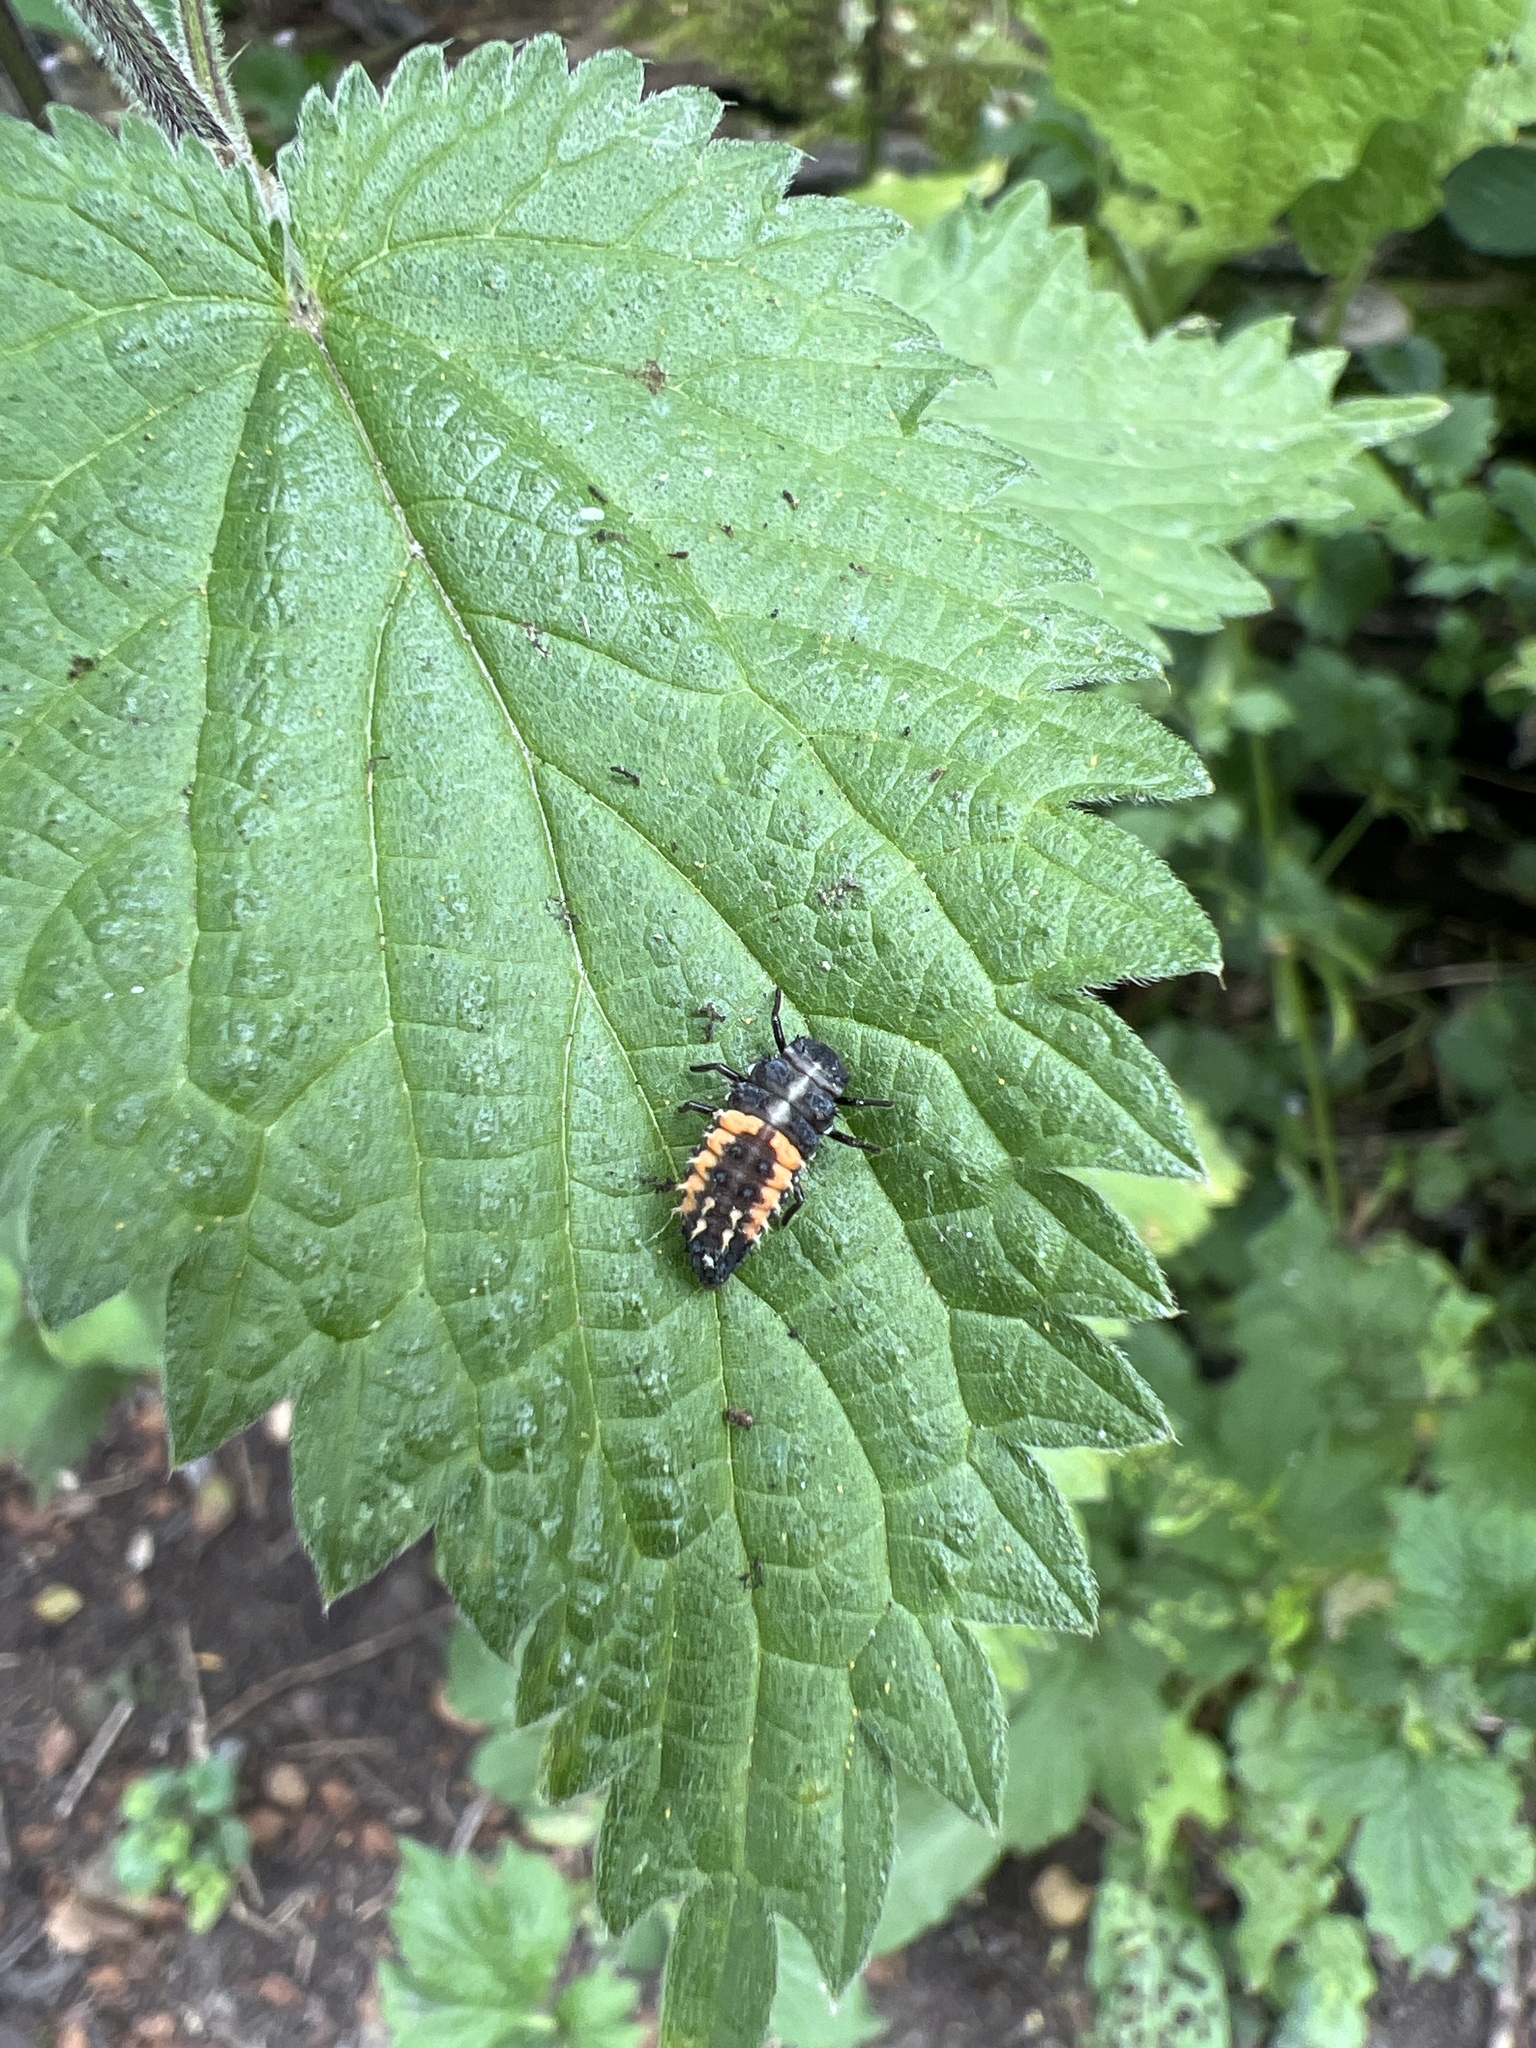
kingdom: Animalia
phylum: Arthropoda
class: Insecta
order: Coleoptera
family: Coccinellidae
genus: Harmonia
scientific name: Harmonia axyridis
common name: Harlequin ladybird
